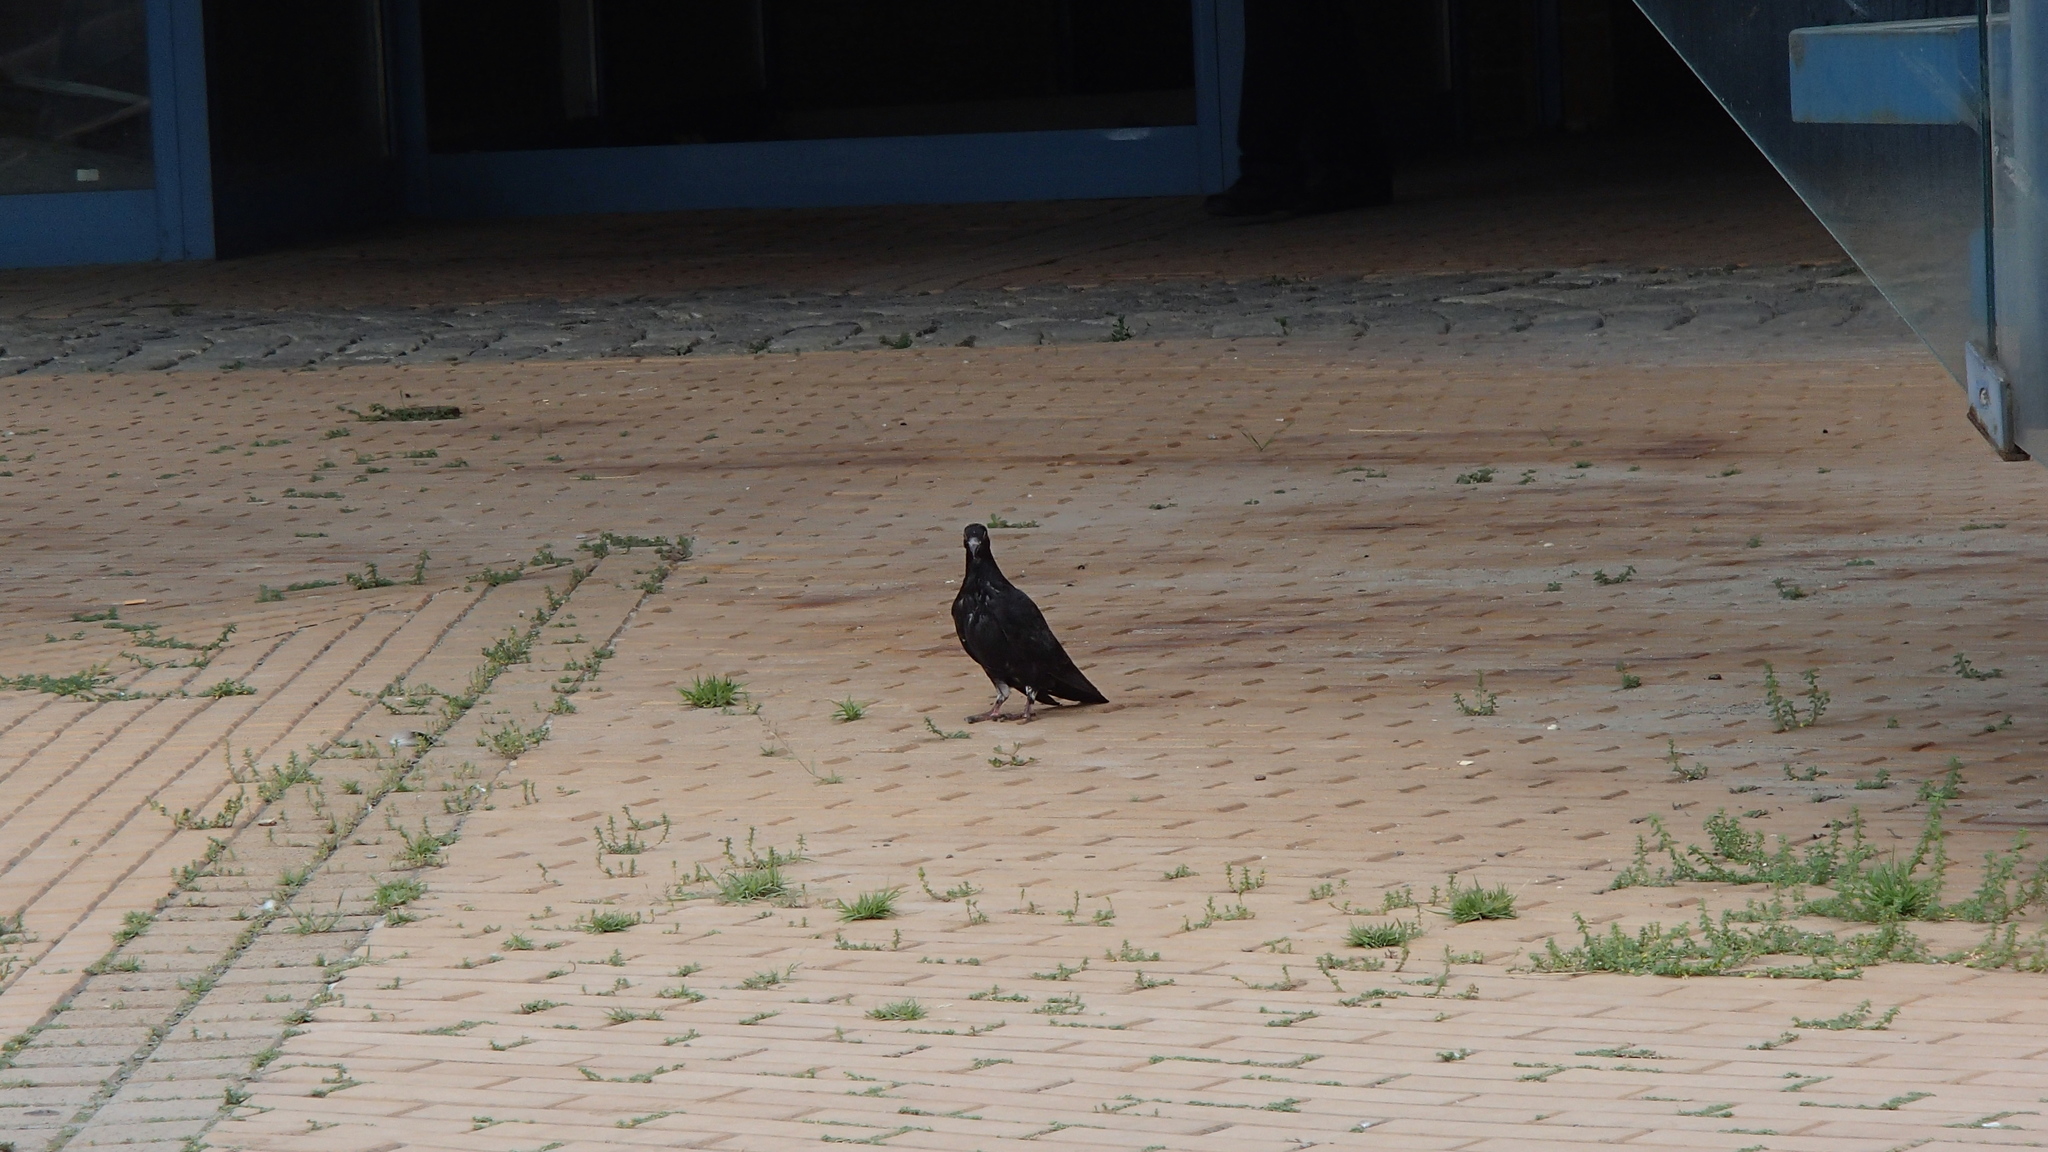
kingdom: Animalia
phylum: Chordata
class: Aves
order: Columbiformes
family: Columbidae
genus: Columba
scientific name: Columba livia
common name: Rock pigeon
